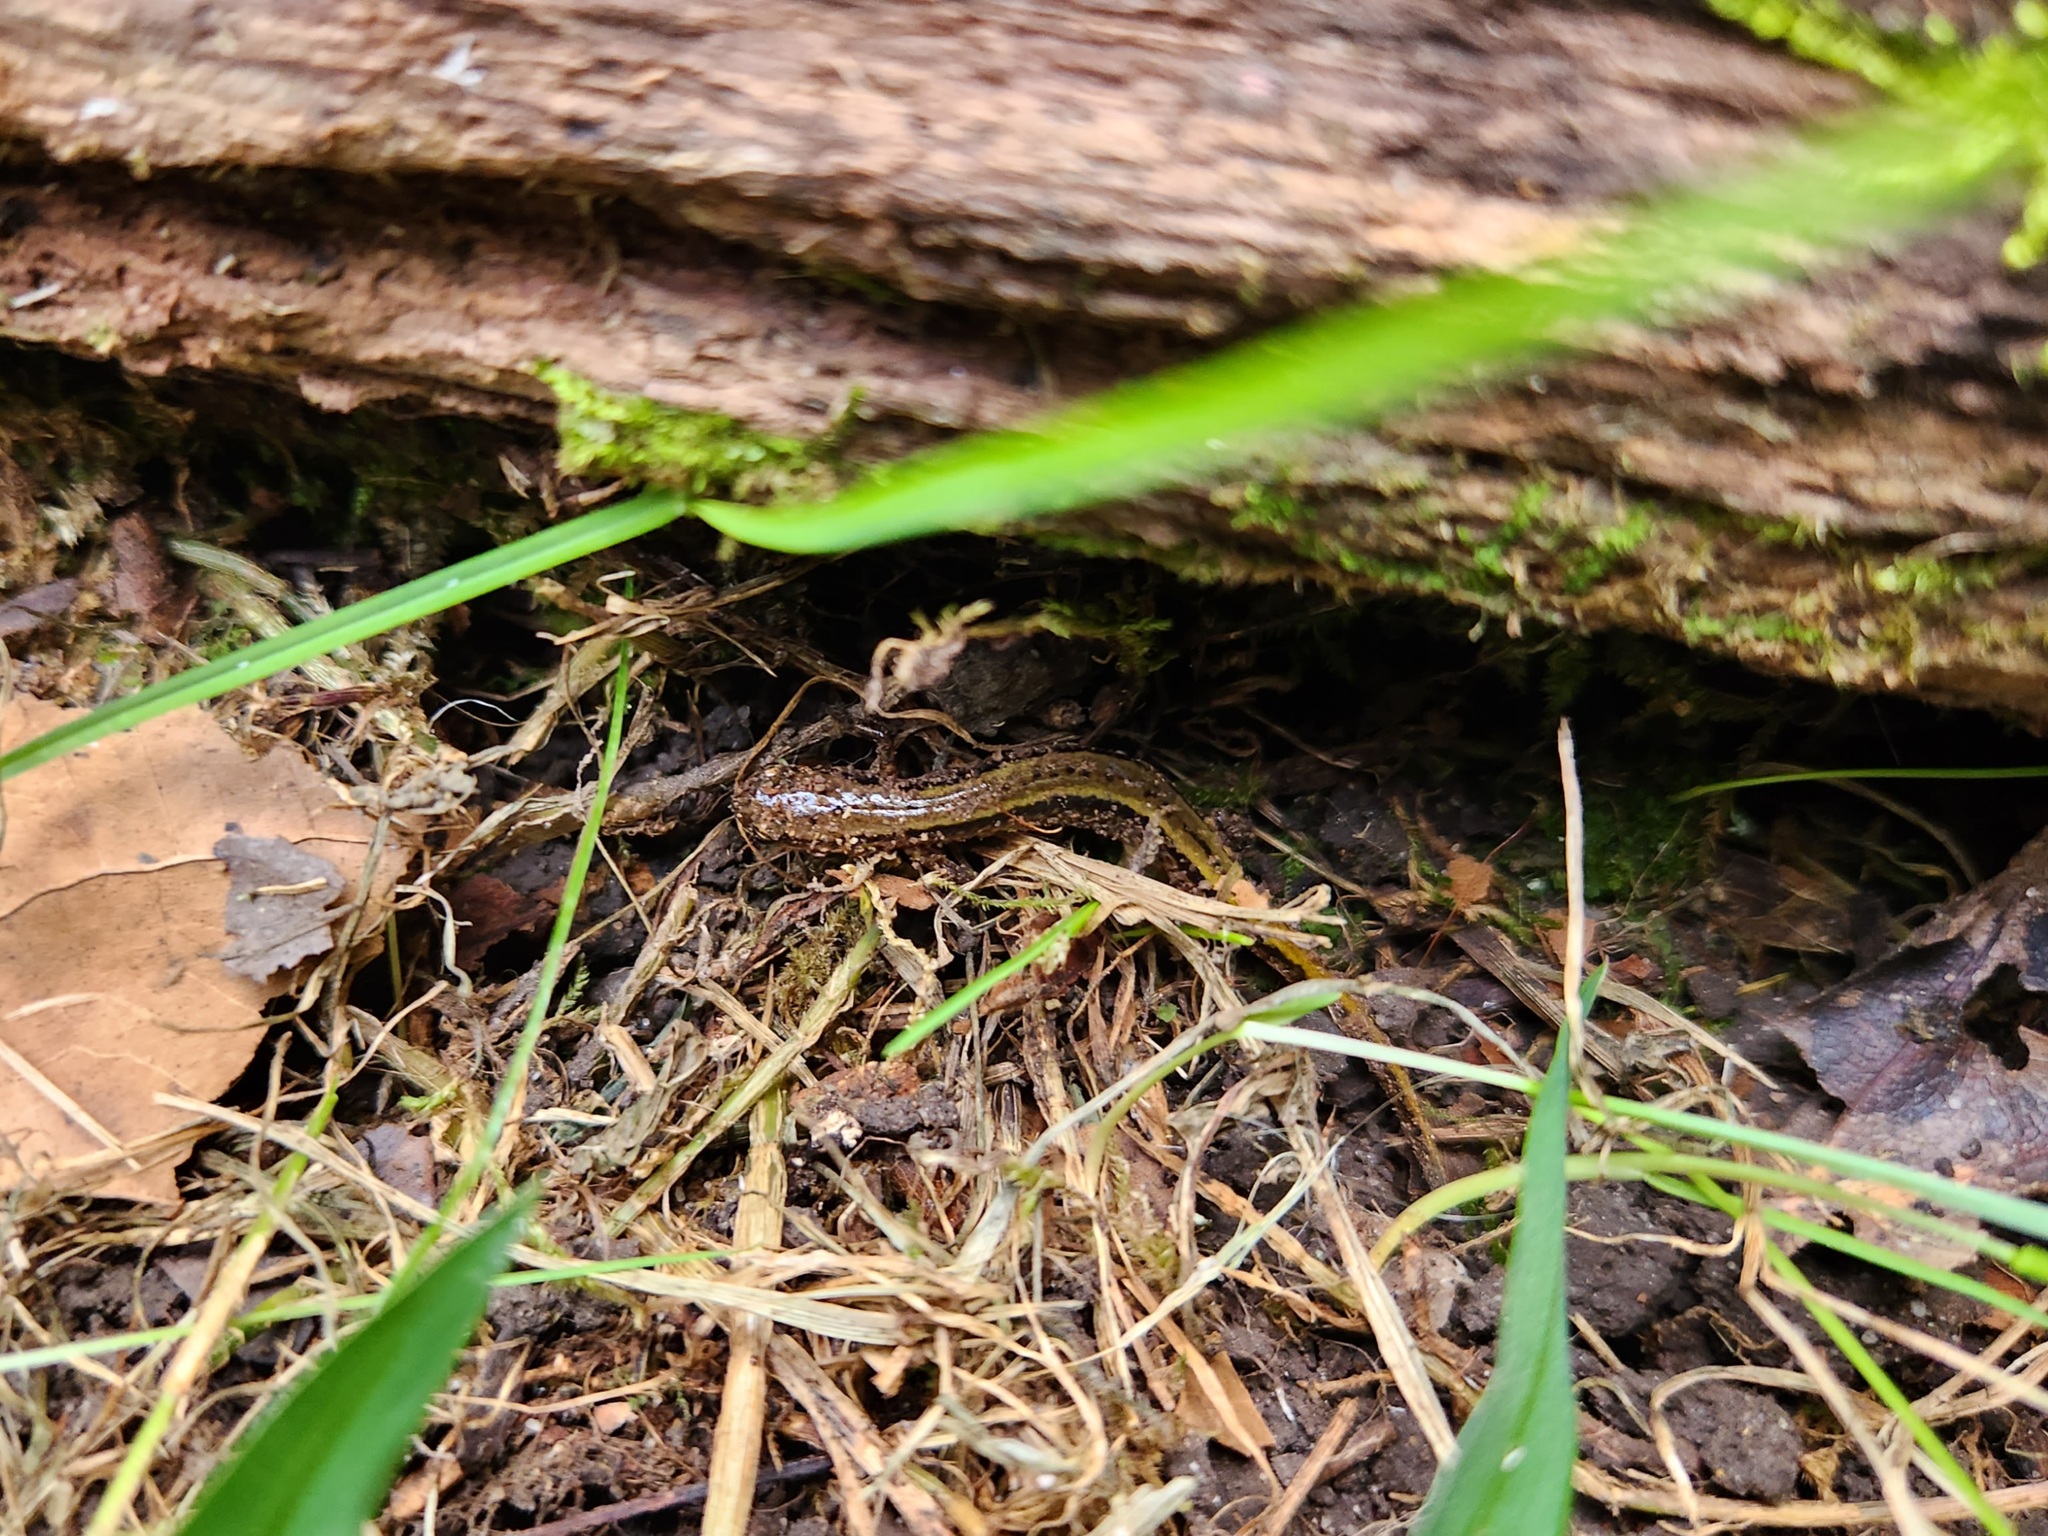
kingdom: Animalia
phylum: Chordata
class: Amphibia
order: Caudata
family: Plethodontidae
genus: Eurycea
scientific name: Eurycea cirrigera
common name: Southern two-lined salamander
